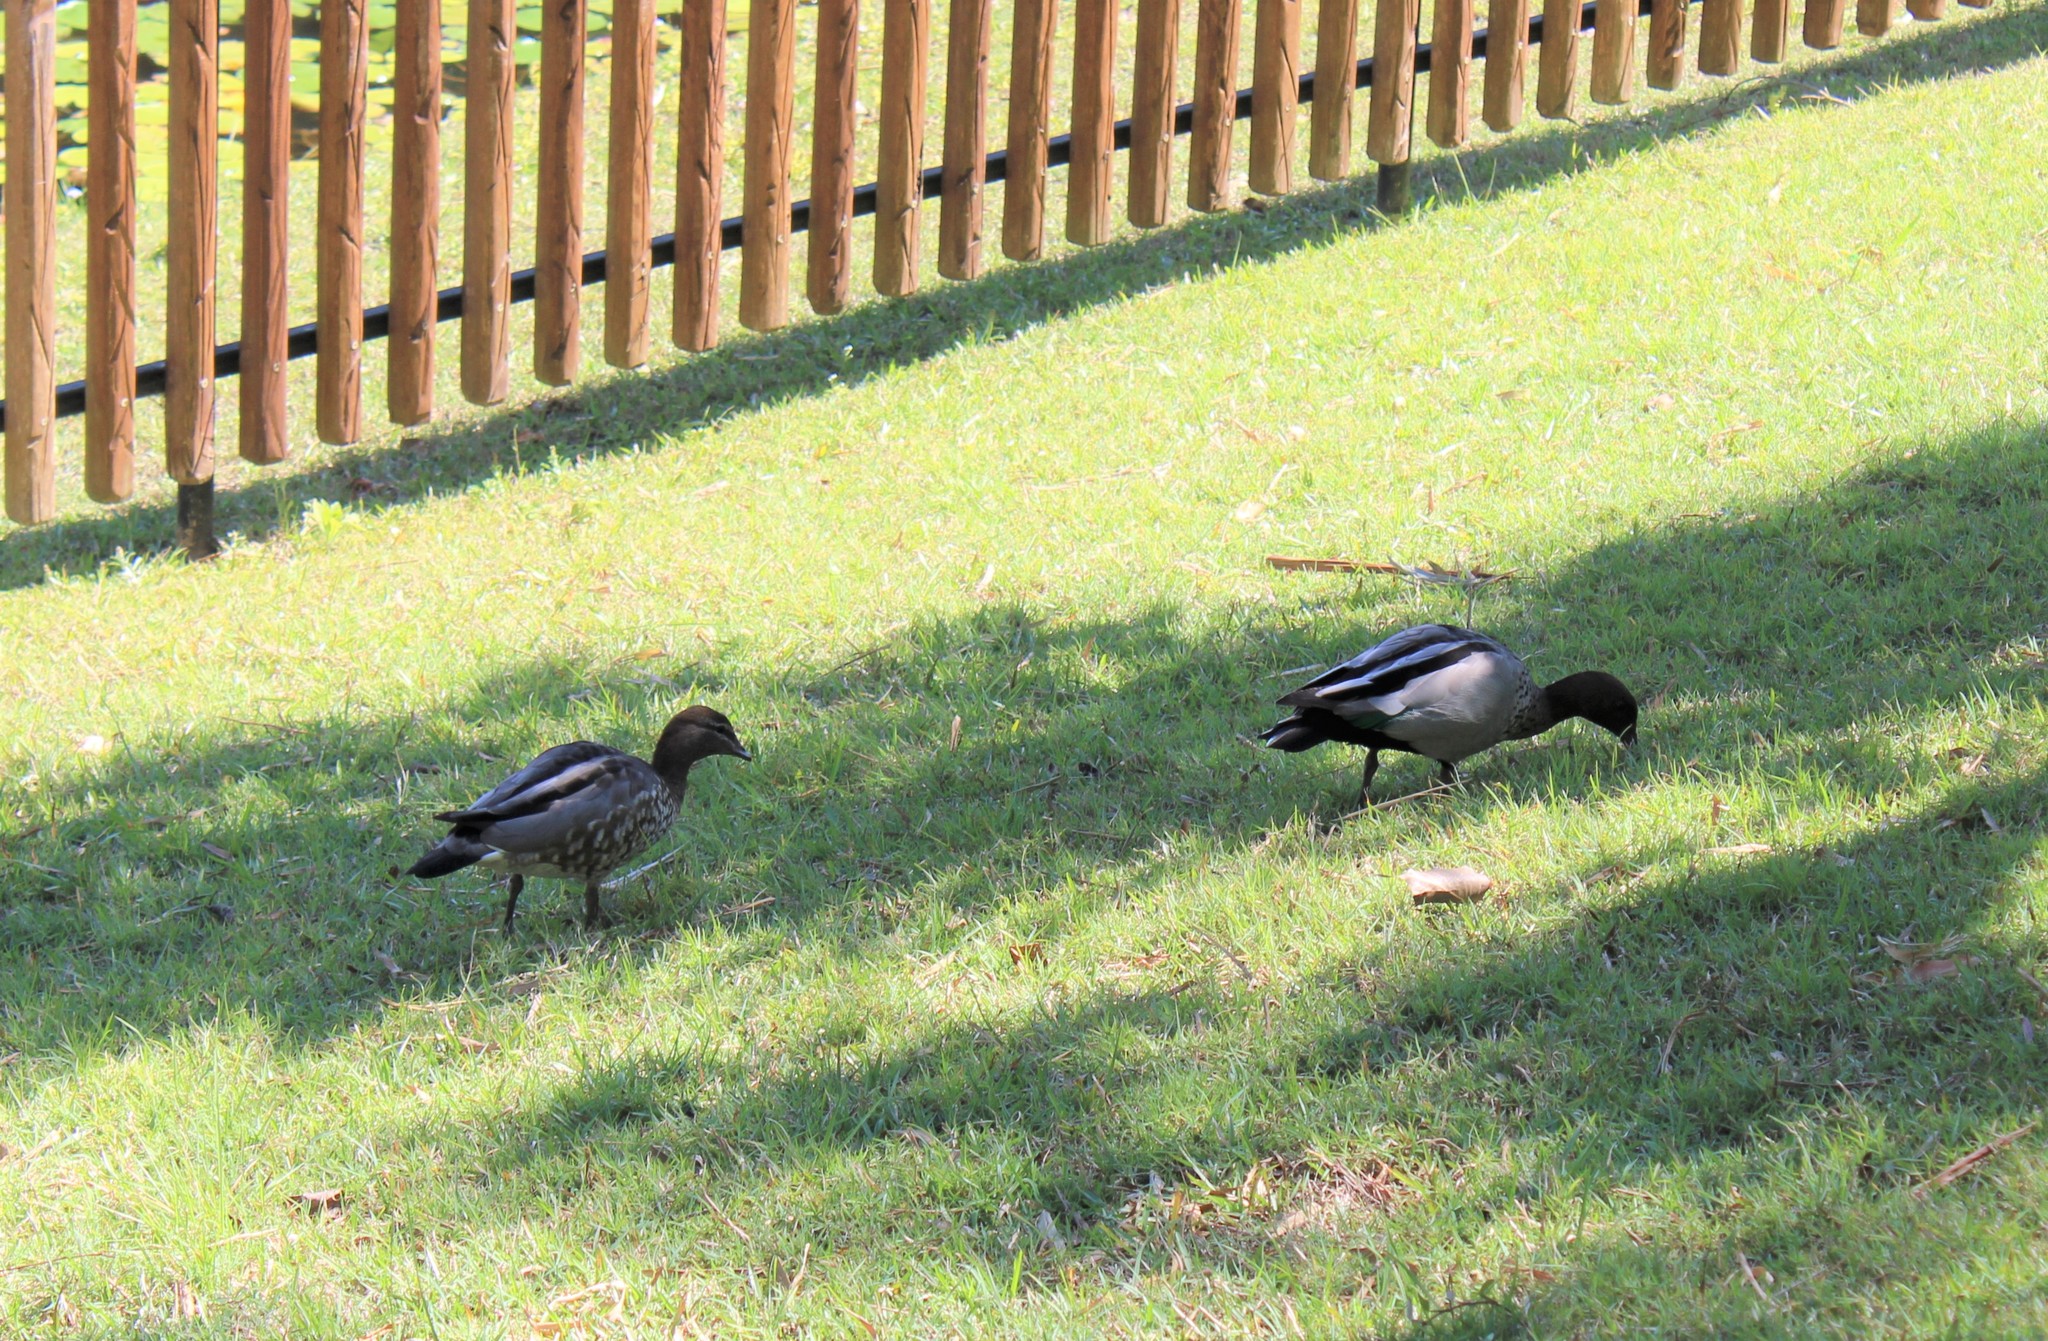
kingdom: Animalia
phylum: Chordata
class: Aves
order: Anseriformes
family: Anatidae
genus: Chenonetta
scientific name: Chenonetta jubata
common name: Maned duck
